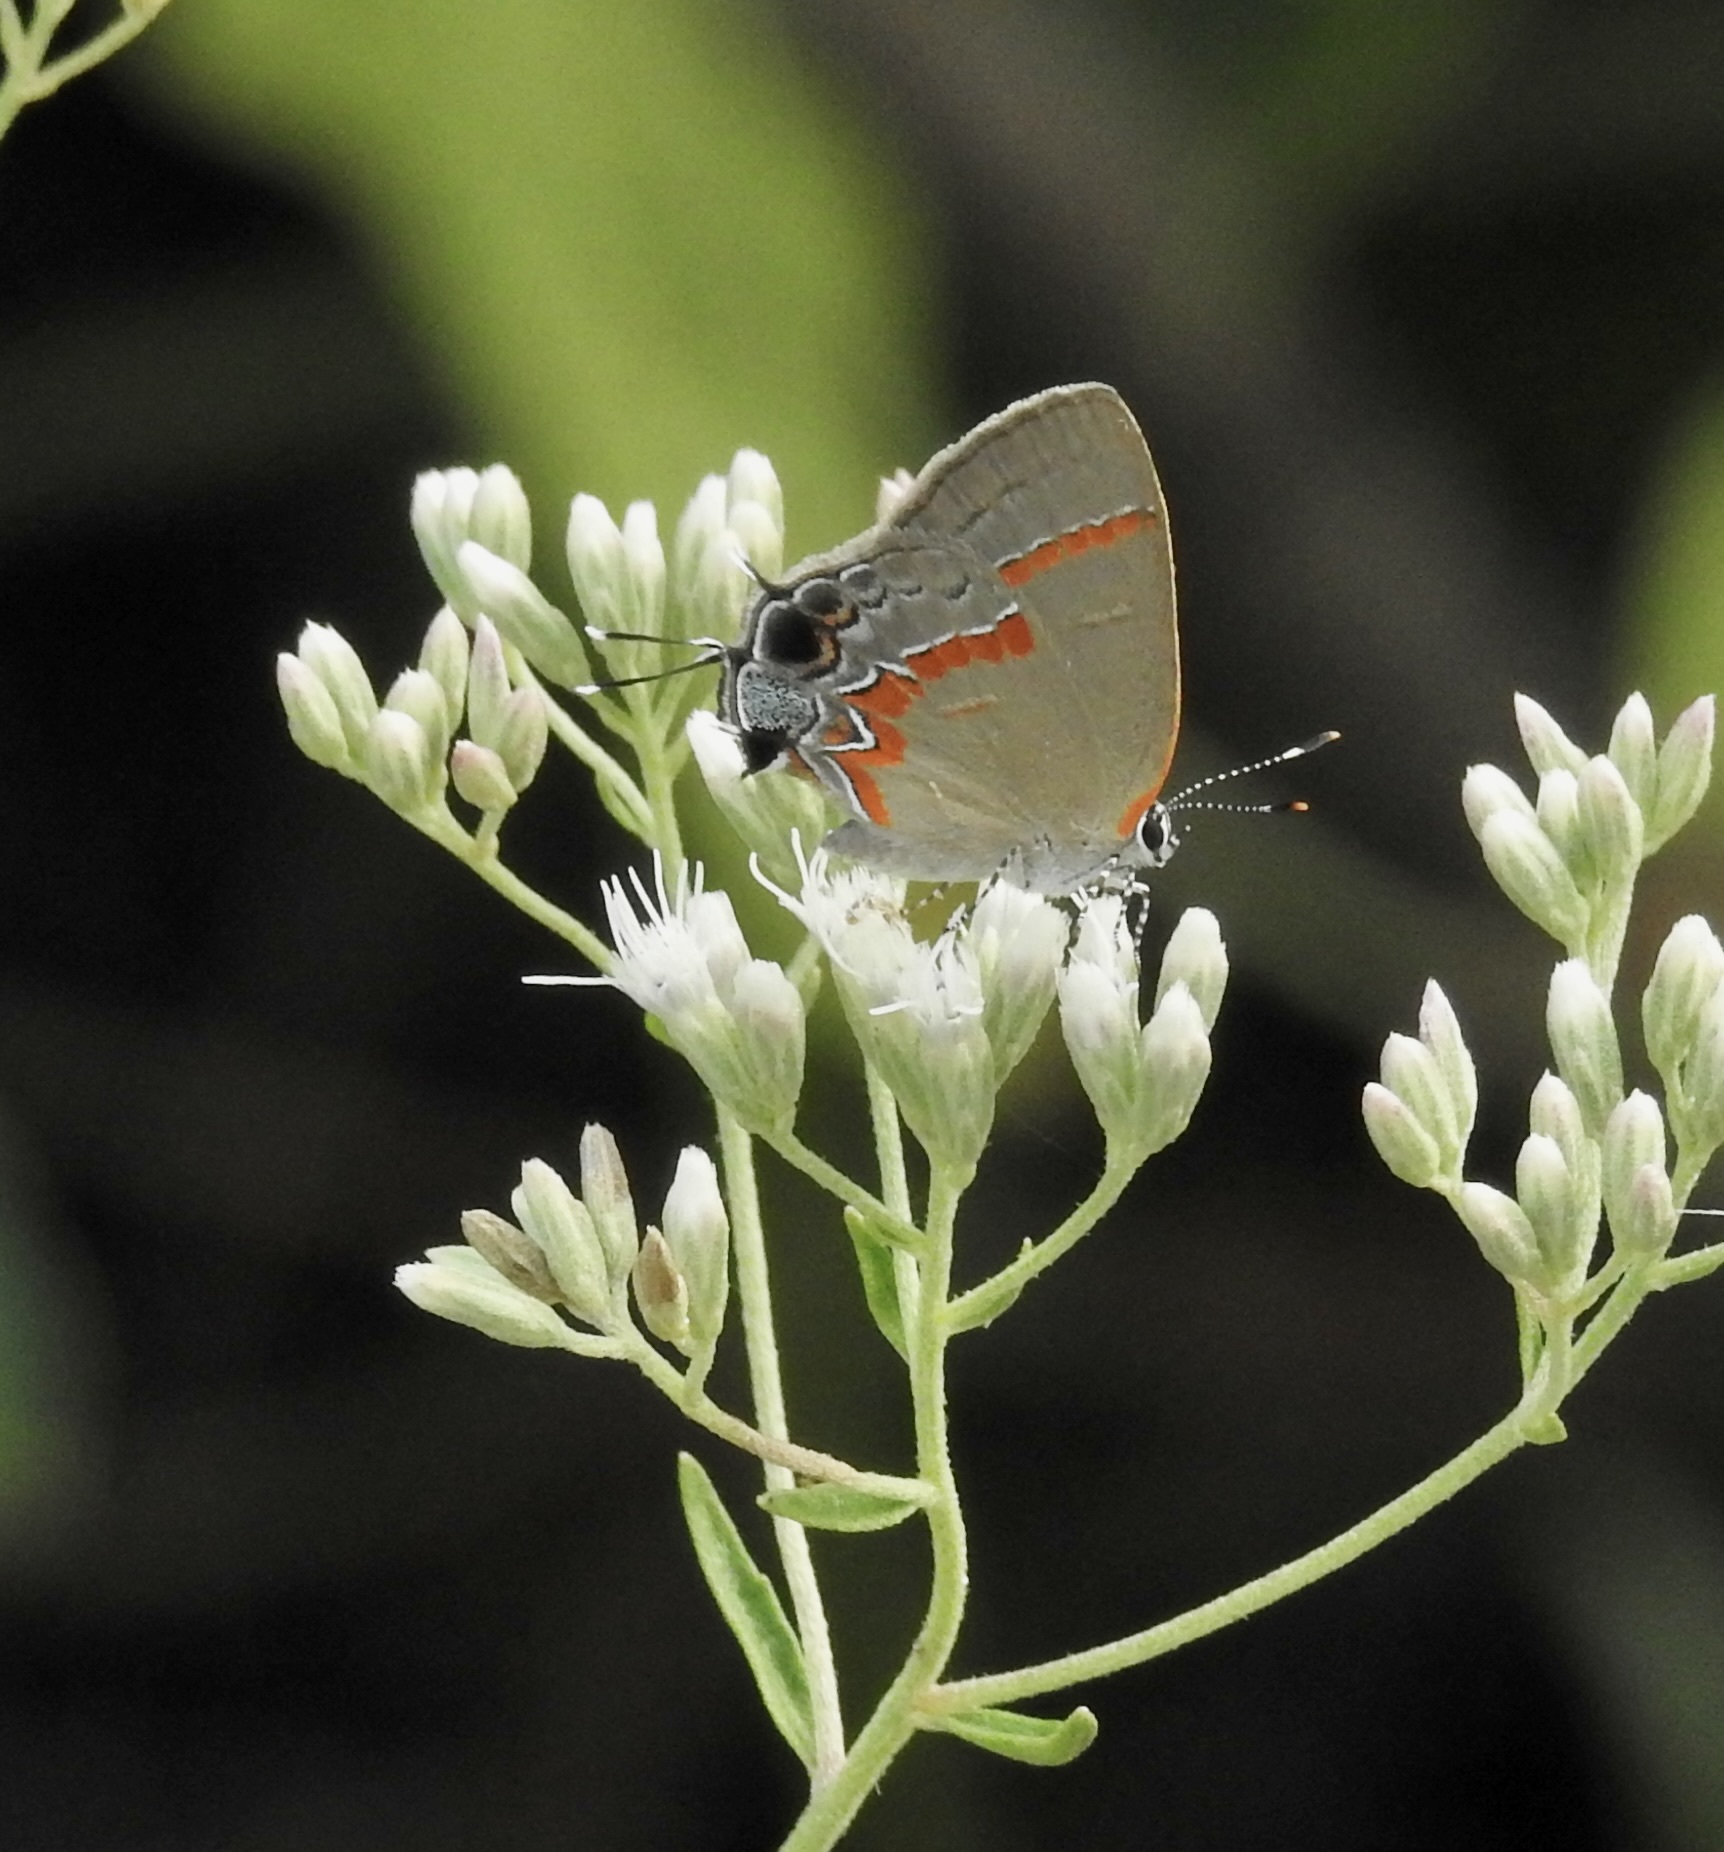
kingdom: Animalia
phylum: Arthropoda
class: Insecta
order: Lepidoptera
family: Lycaenidae
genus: Calycopis
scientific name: Calycopis cecrops
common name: Red-banded hairstreak
